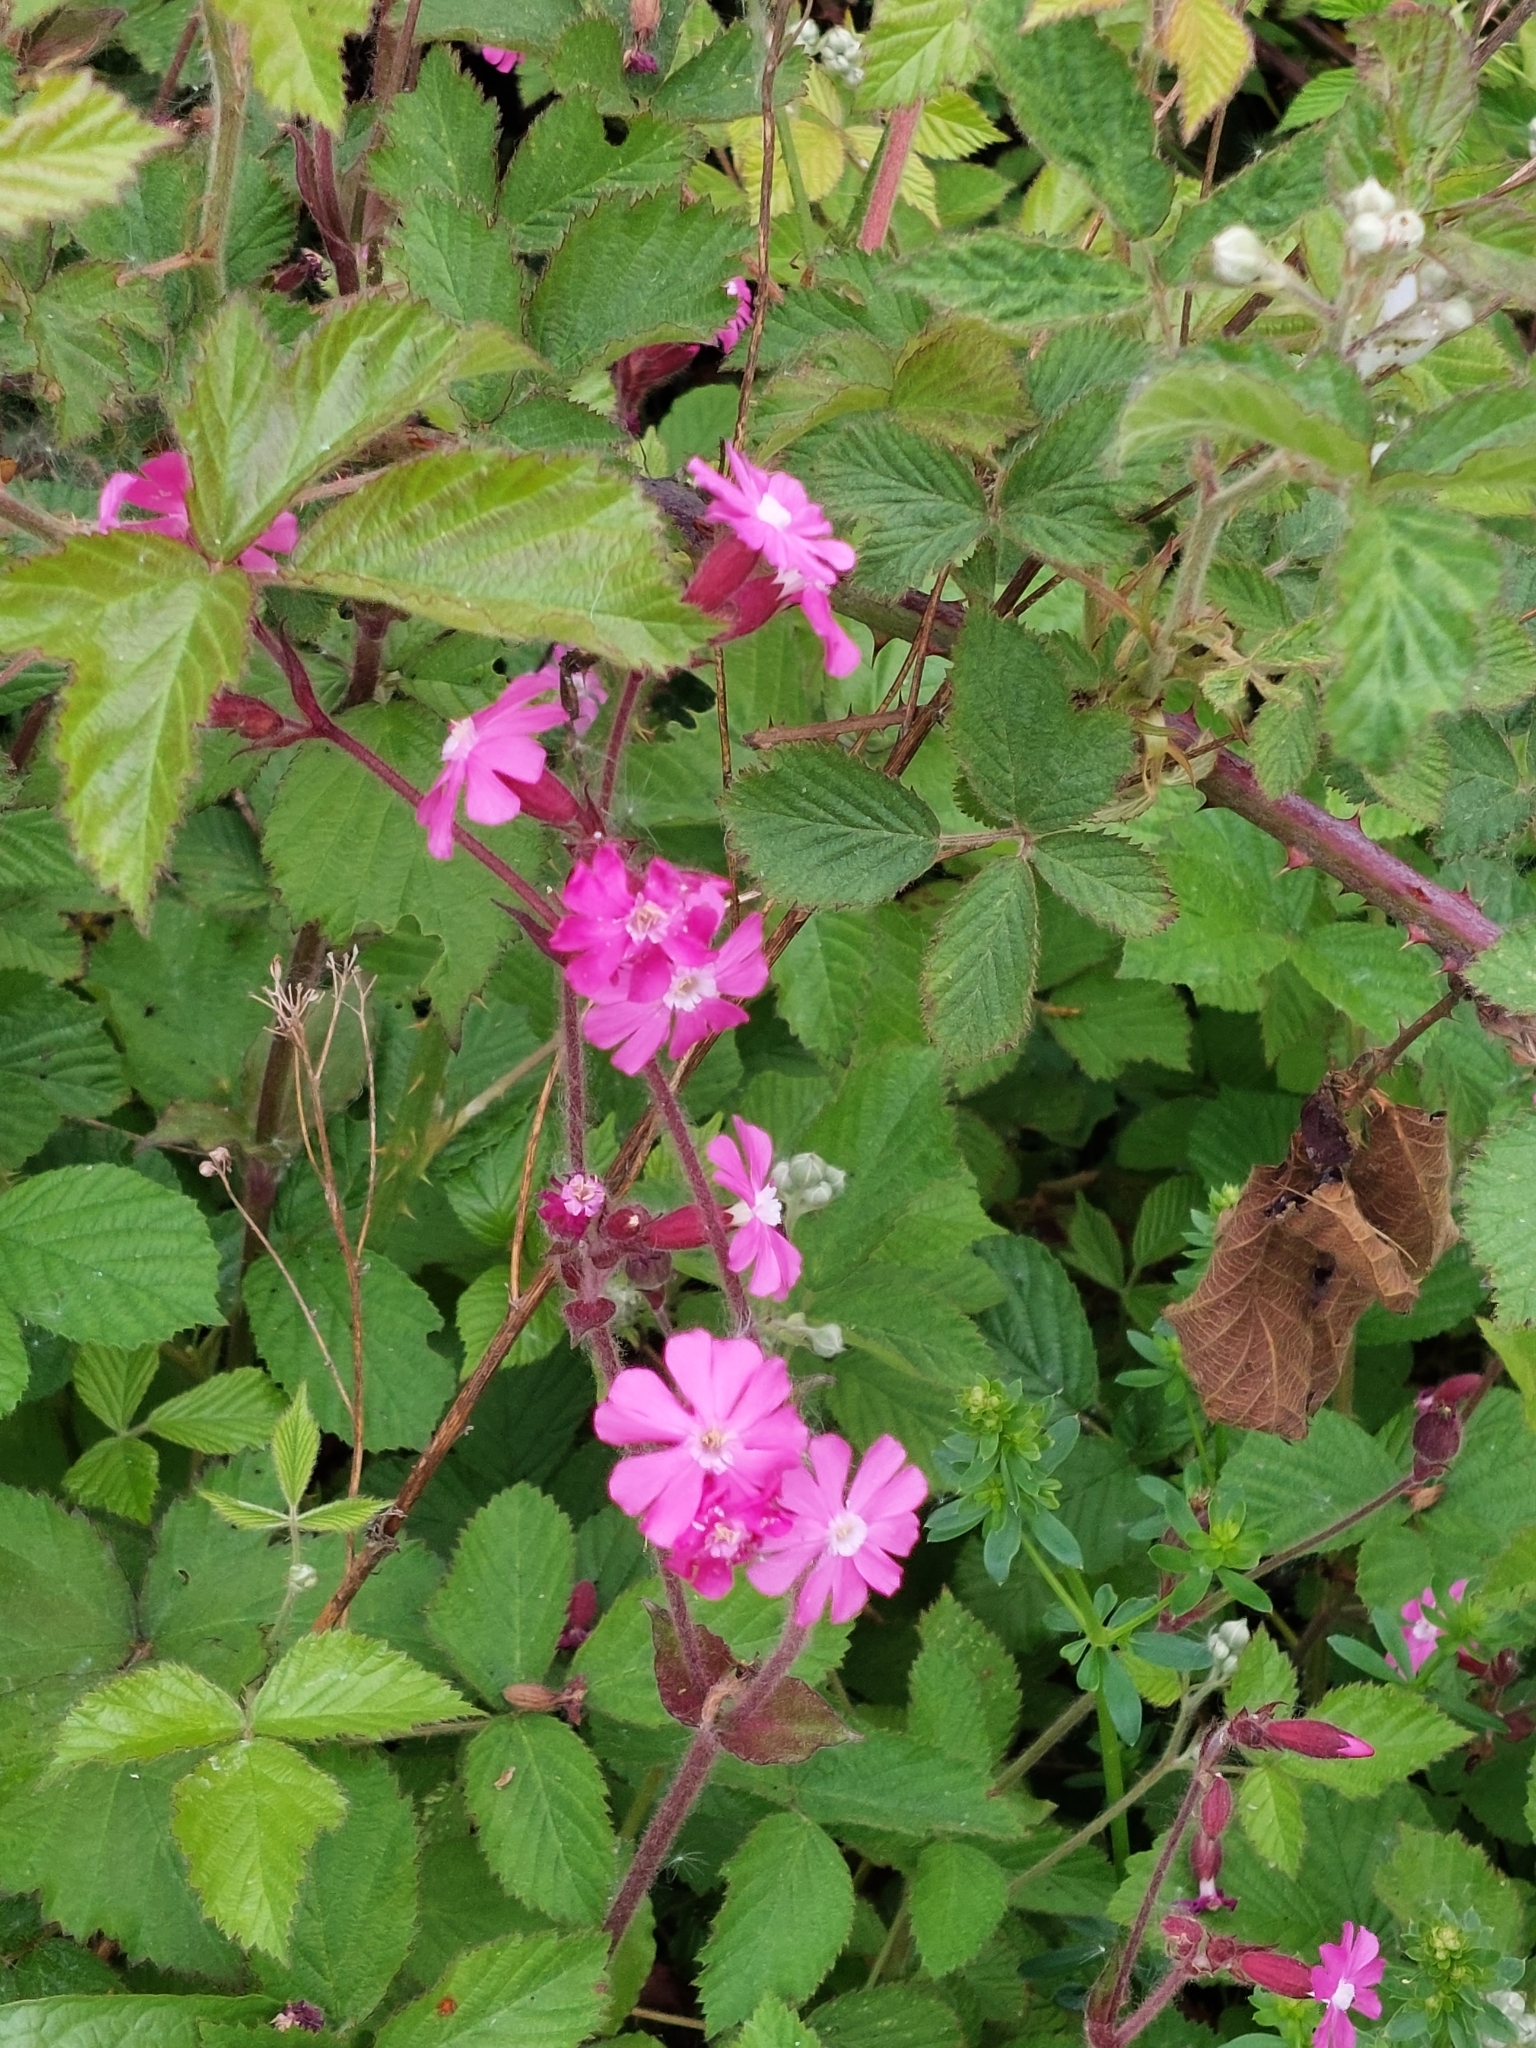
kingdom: Plantae
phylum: Tracheophyta
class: Magnoliopsida
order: Caryophyllales
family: Caryophyllaceae
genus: Silene
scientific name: Silene dioica
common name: Red campion
